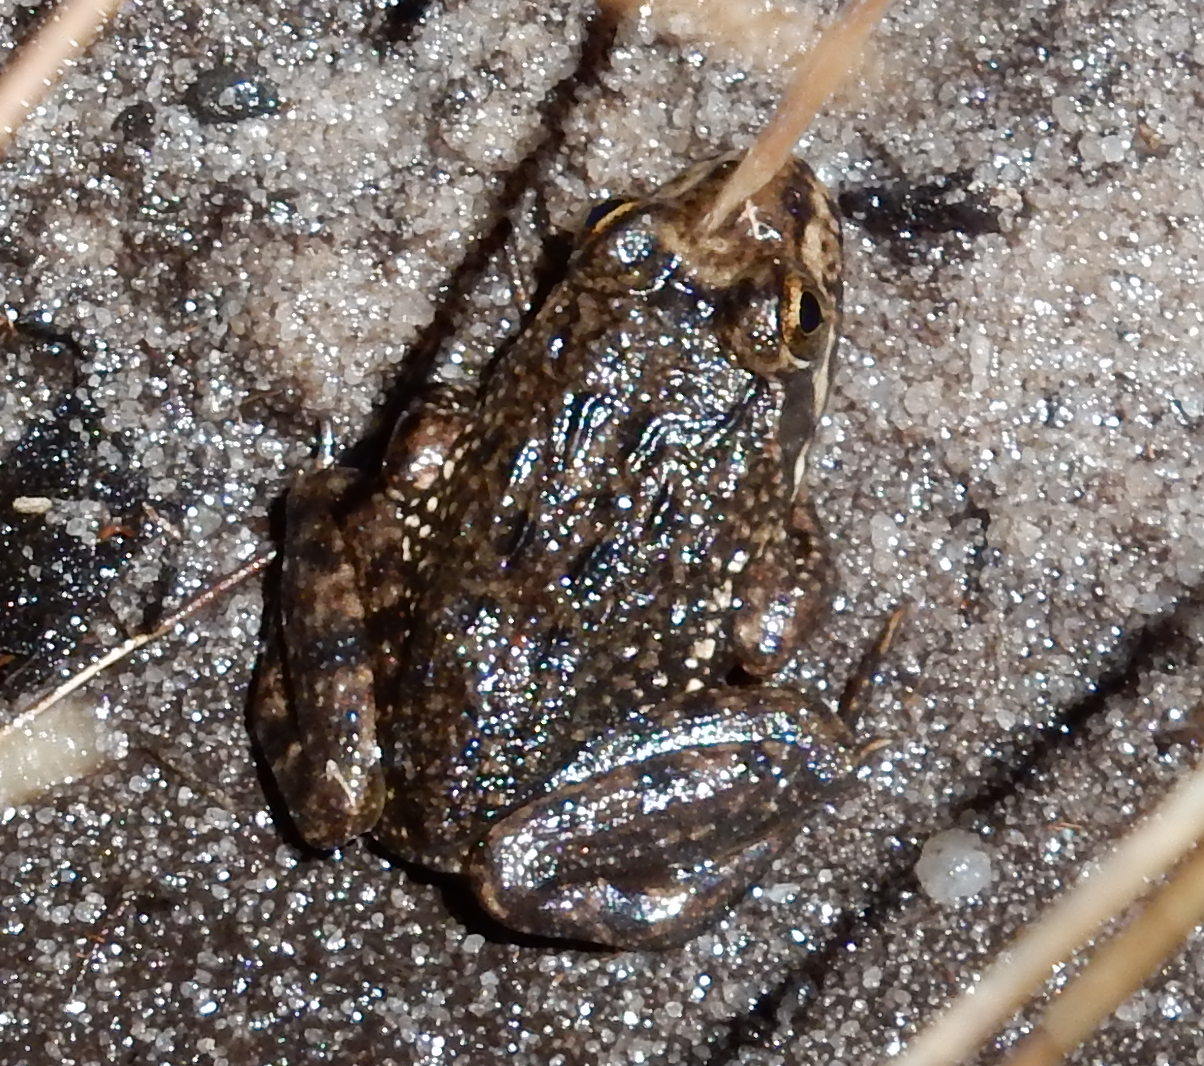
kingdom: Animalia
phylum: Chordata
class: Amphibia
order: Anura
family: Pyxicephalidae
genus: Amietia
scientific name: Amietia fuscigula
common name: Cape rana
